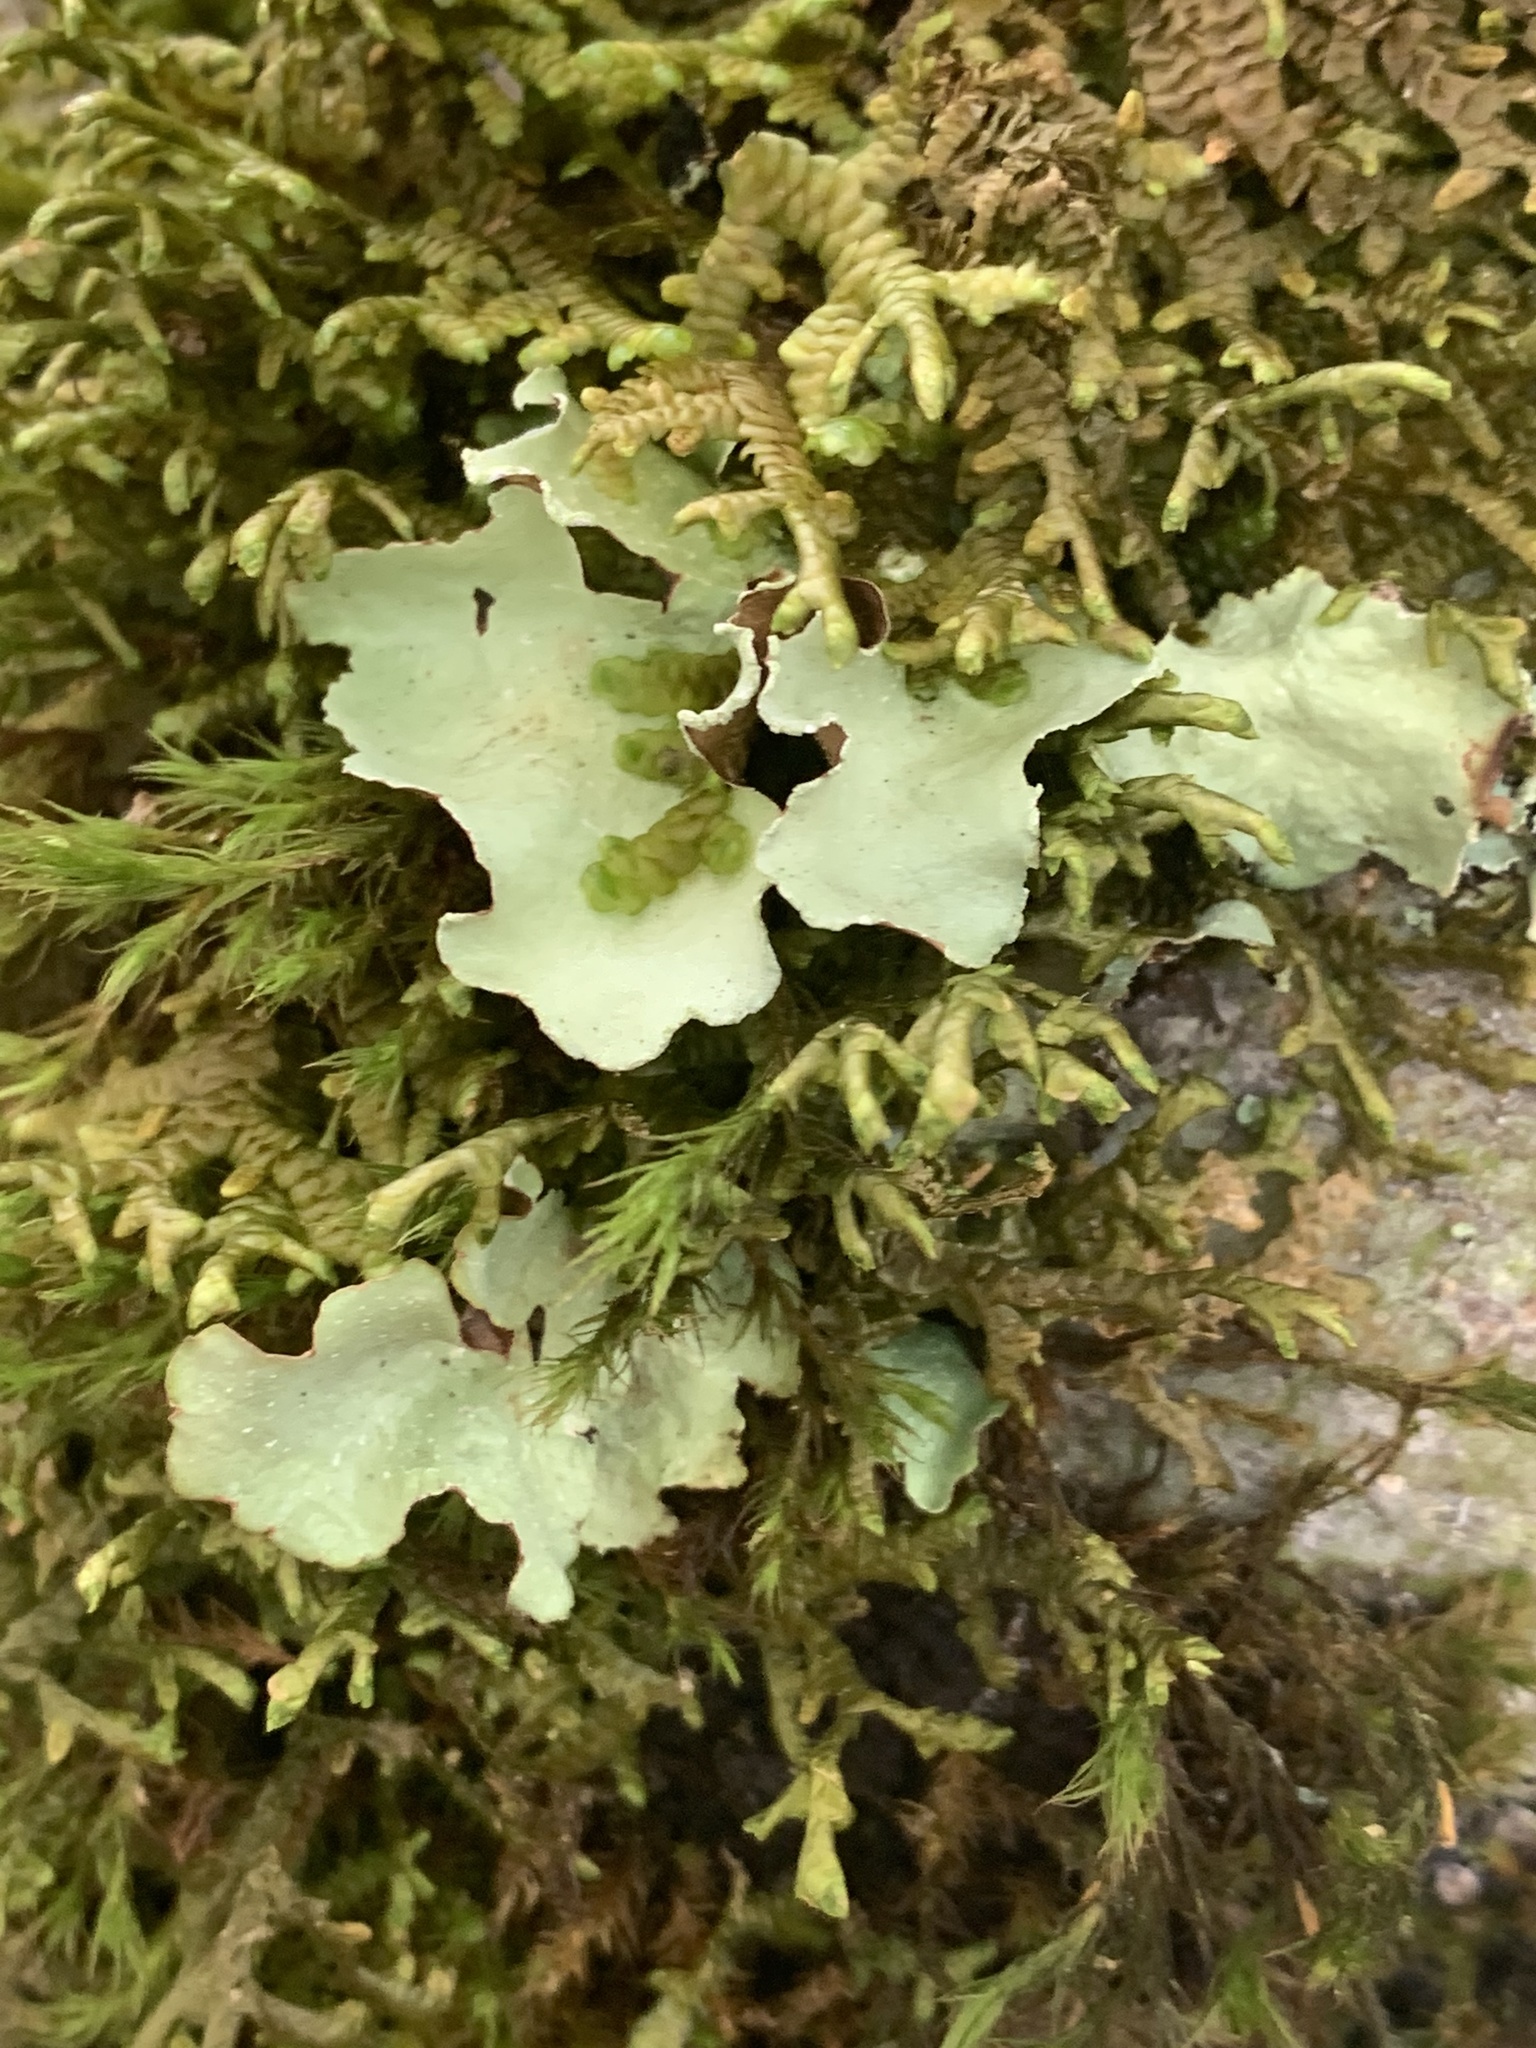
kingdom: Fungi
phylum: Ascomycota
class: Lecanoromycetes
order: Lecanorales
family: Parmeliaceae
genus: Cetrelia
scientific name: Cetrelia cetrarioides
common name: Speckled iceland lichen
